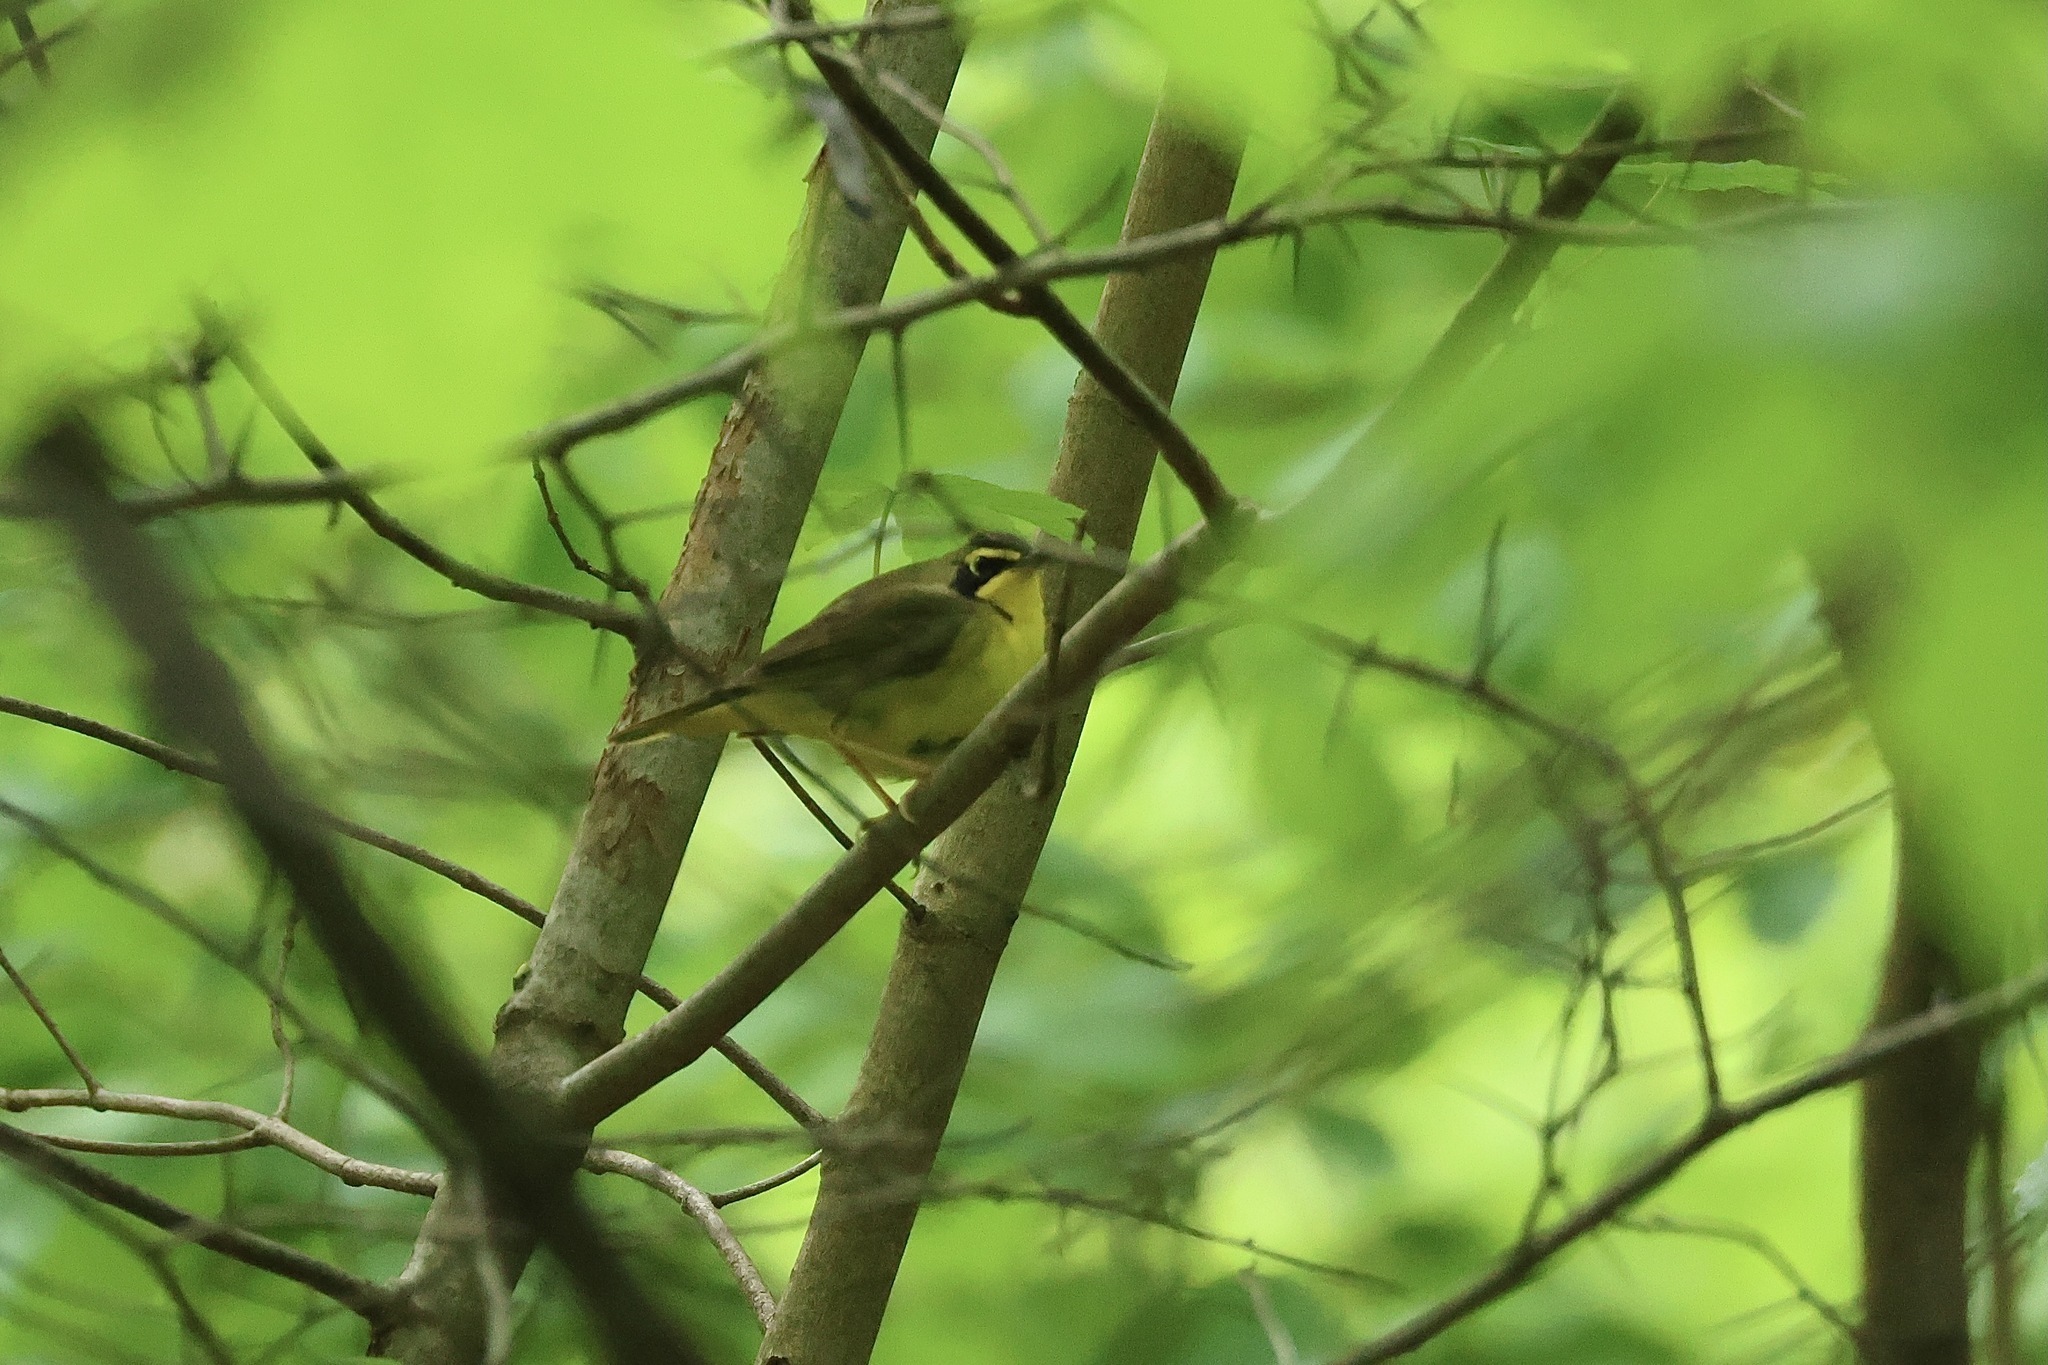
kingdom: Animalia
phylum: Chordata
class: Aves
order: Passeriformes
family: Parulidae
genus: Geothlypis
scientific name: Geothlypis formosa
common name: Kentucky warbler
